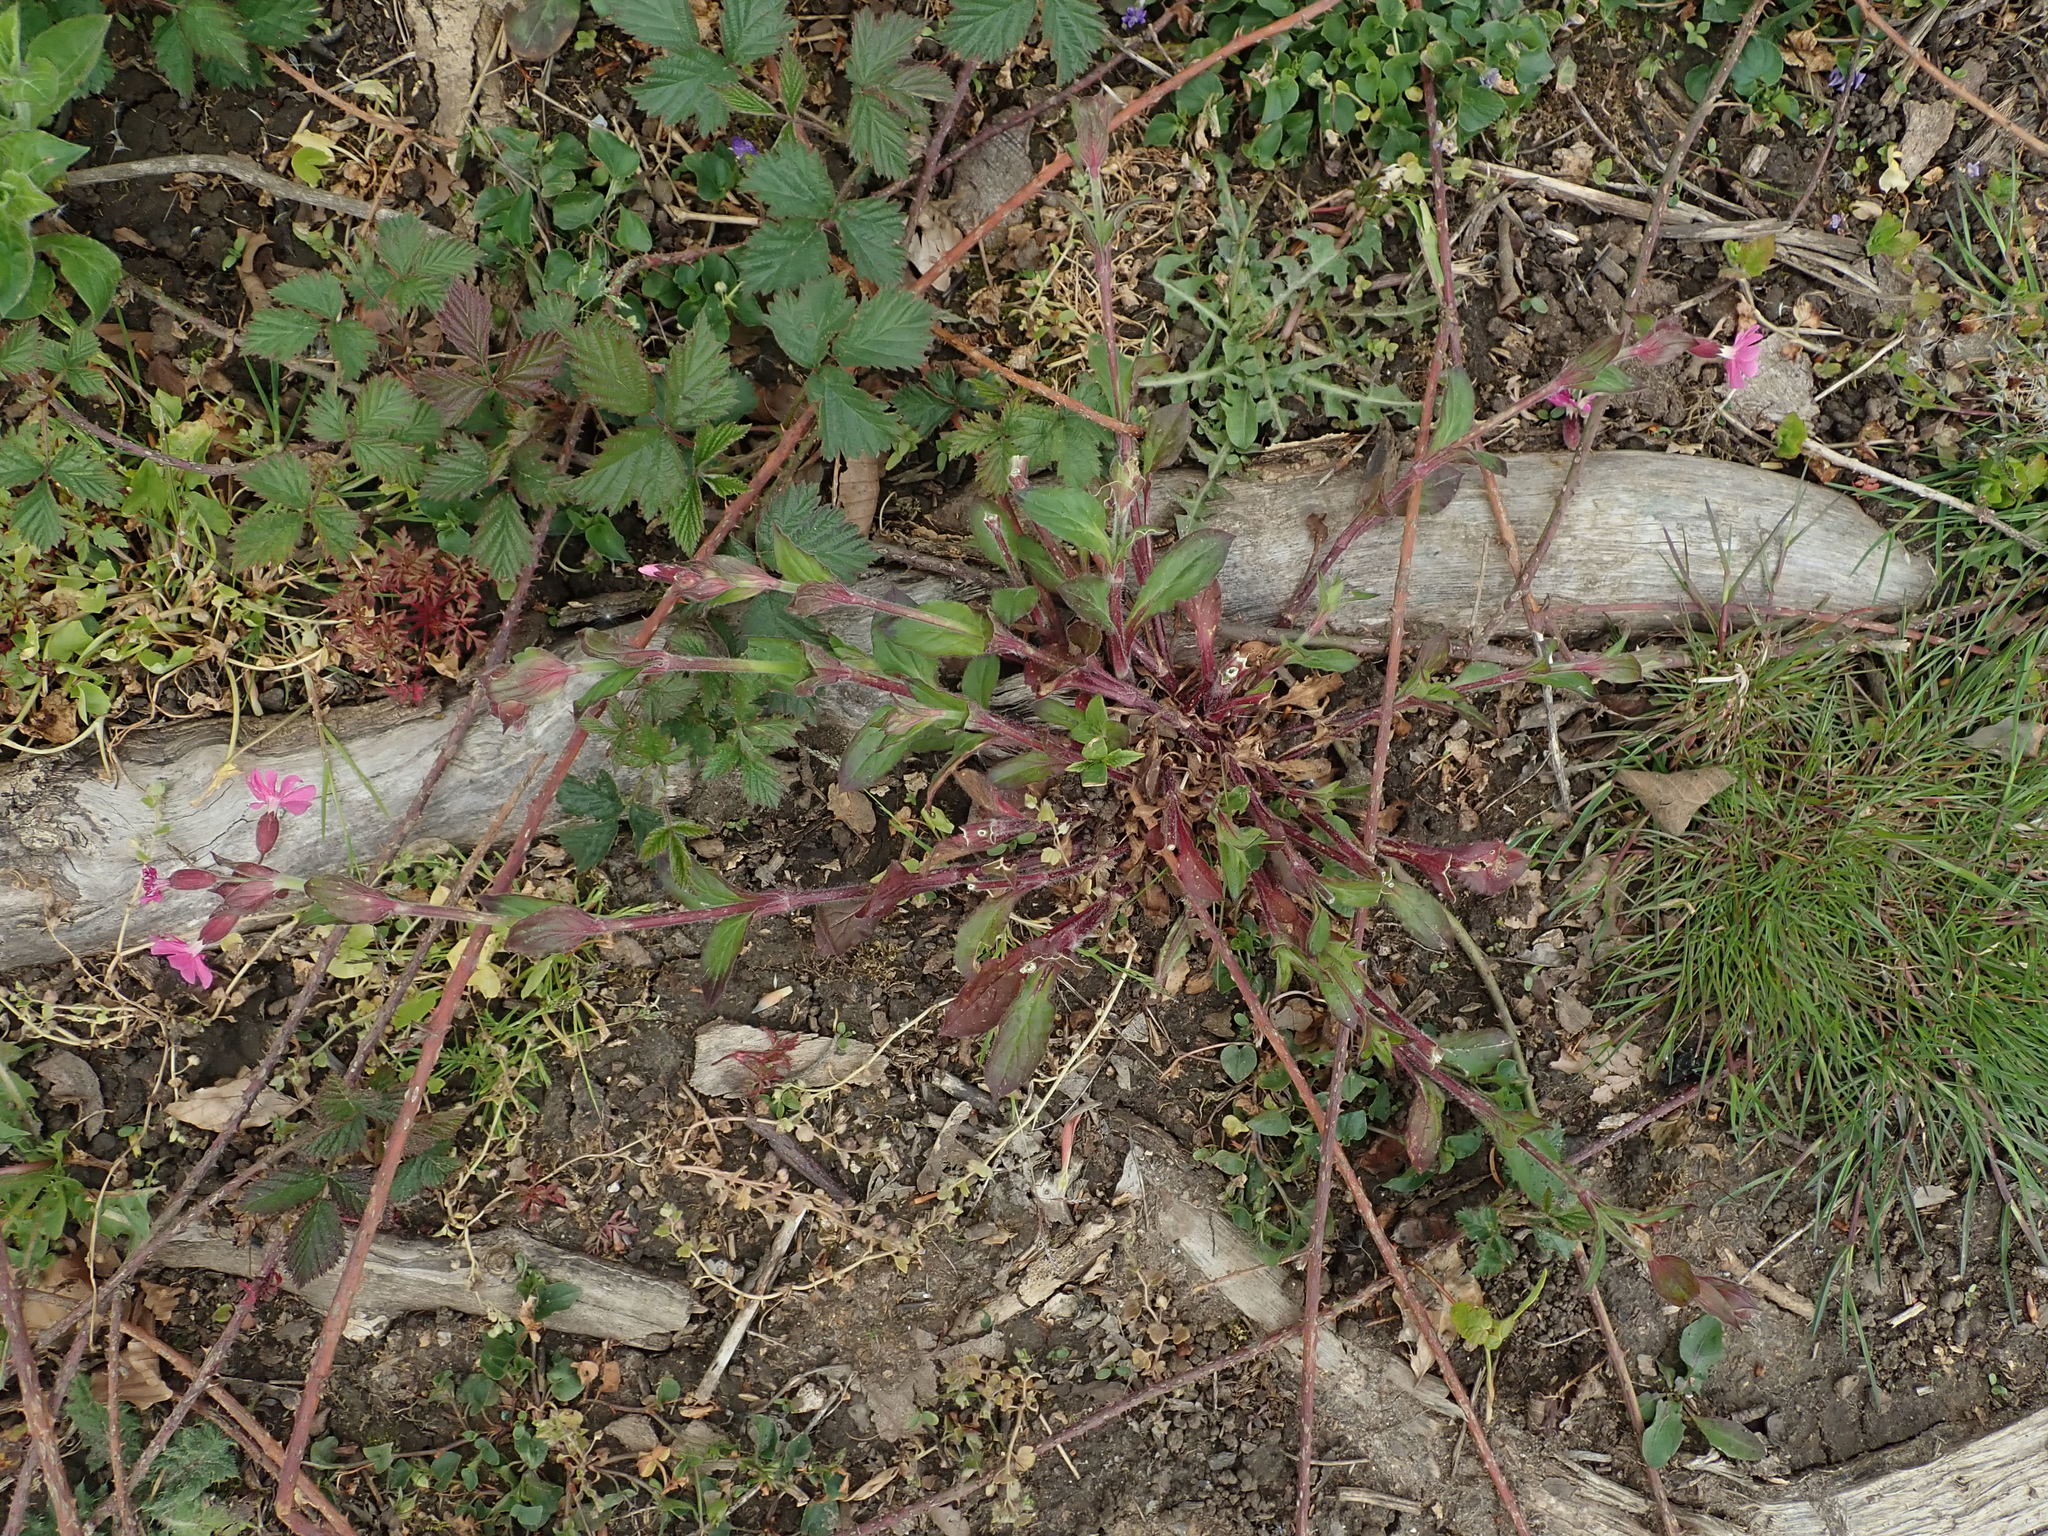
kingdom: Plantae
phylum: Tracheophyta
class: Magnoliopsida
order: Caryophyllales
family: Caryophyllaceae
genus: Silene
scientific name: Silene dioica
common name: Red campion
